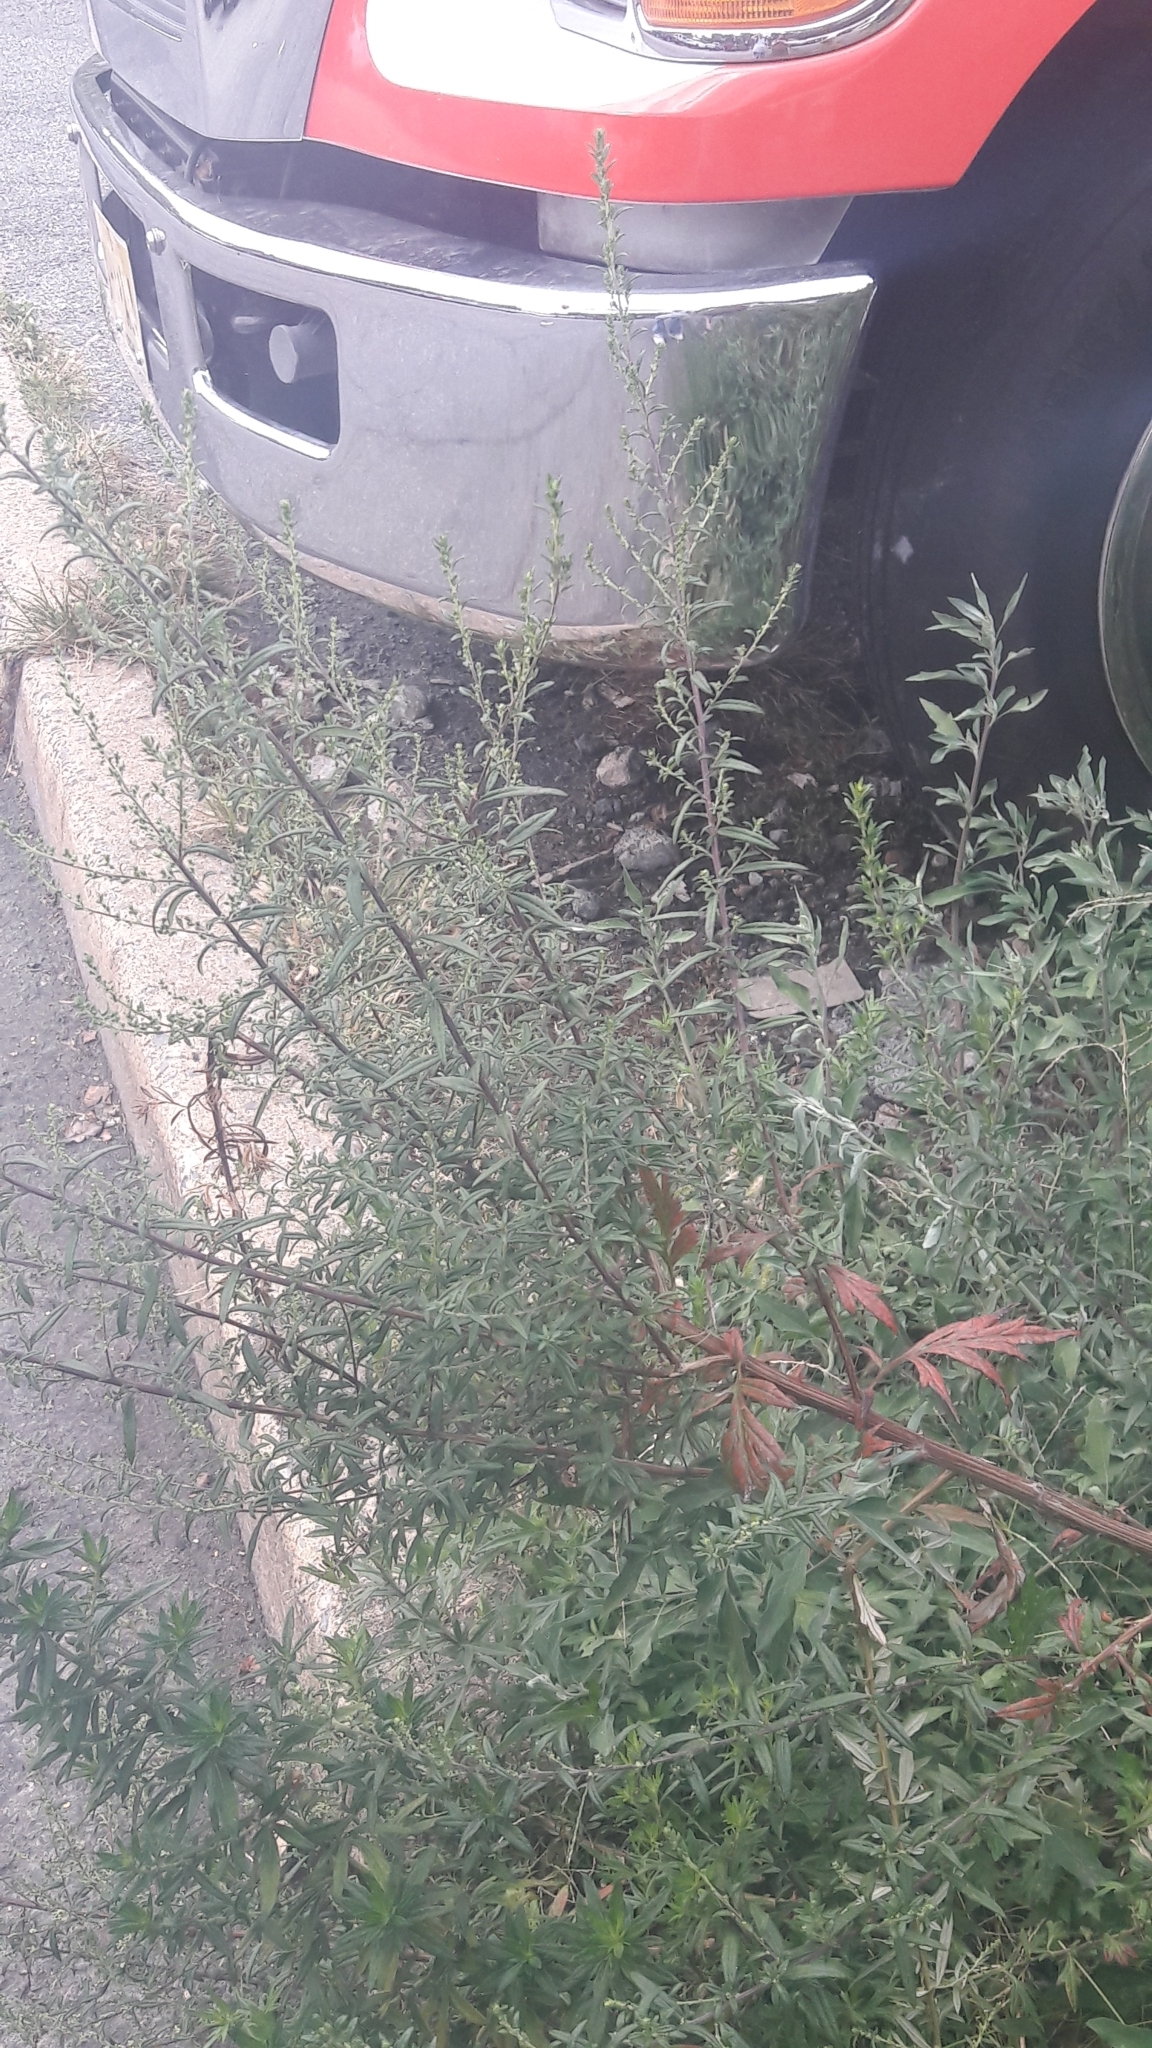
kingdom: Plantae
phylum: Tracheophyta
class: Magnoliopsida
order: Asterales
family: Asteraceae
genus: Artemisia
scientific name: Artemisia vulgaris
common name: Mugwort
